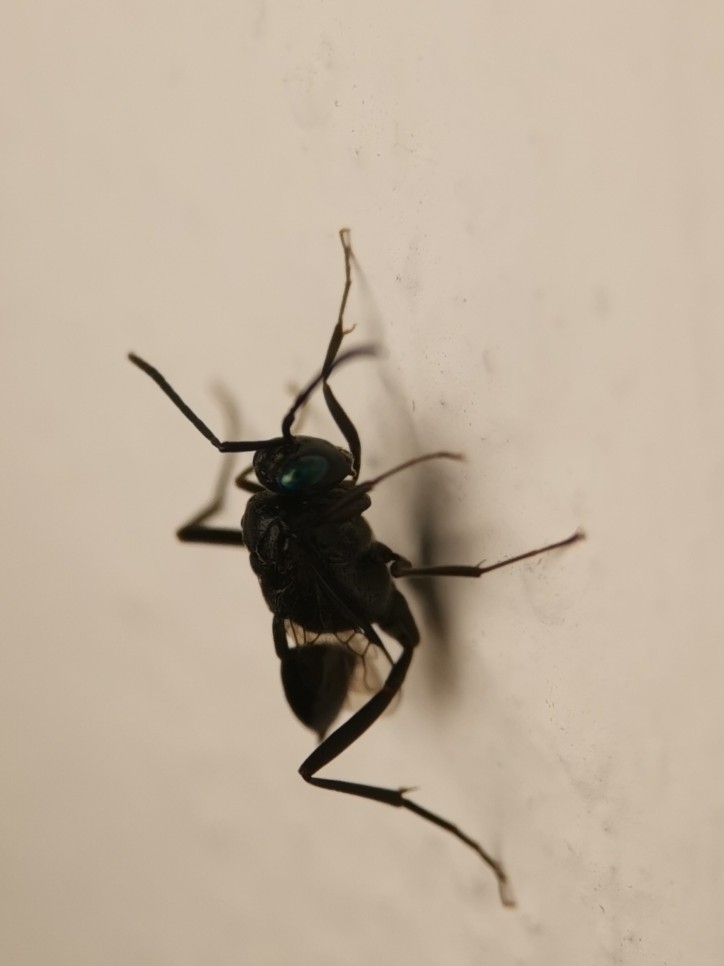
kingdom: Animalia
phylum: Arthropoda
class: Insecta
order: Hymenoptera
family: Evaniidae
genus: Evania
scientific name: Evania appendigaster
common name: Ensign wasp
